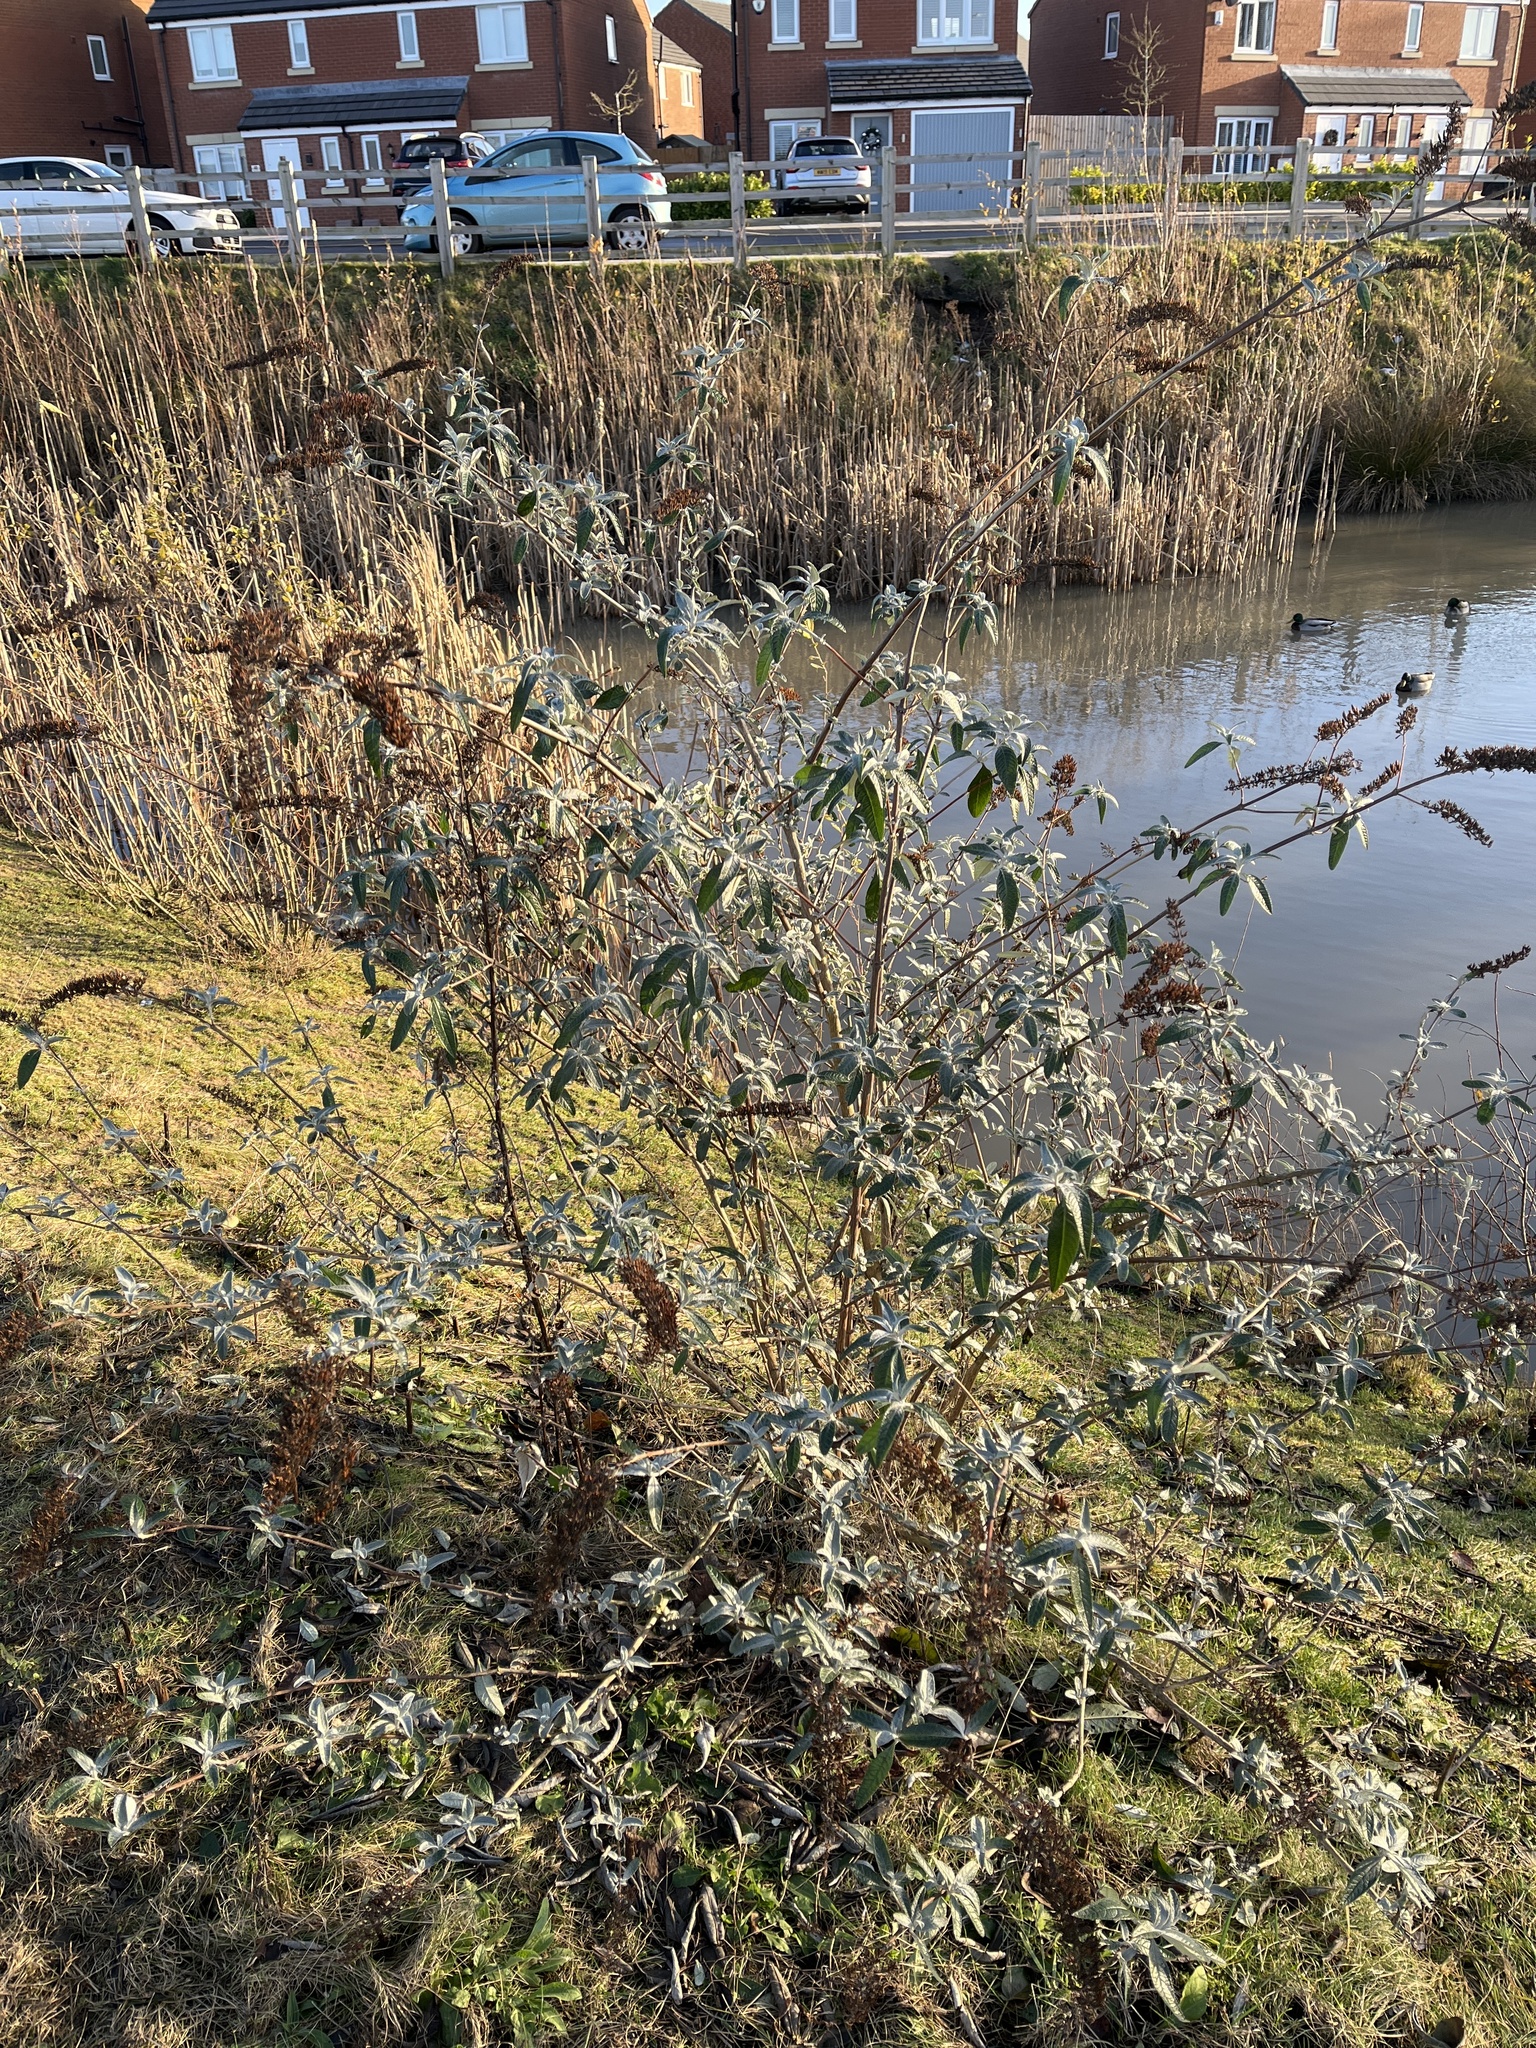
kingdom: Plantae
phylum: Tracheophyta
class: Magnoliopsida
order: Lamiales
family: Scrophulariaceae
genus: Buddleja
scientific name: Buddleja davidii
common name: Butterfly-bush
